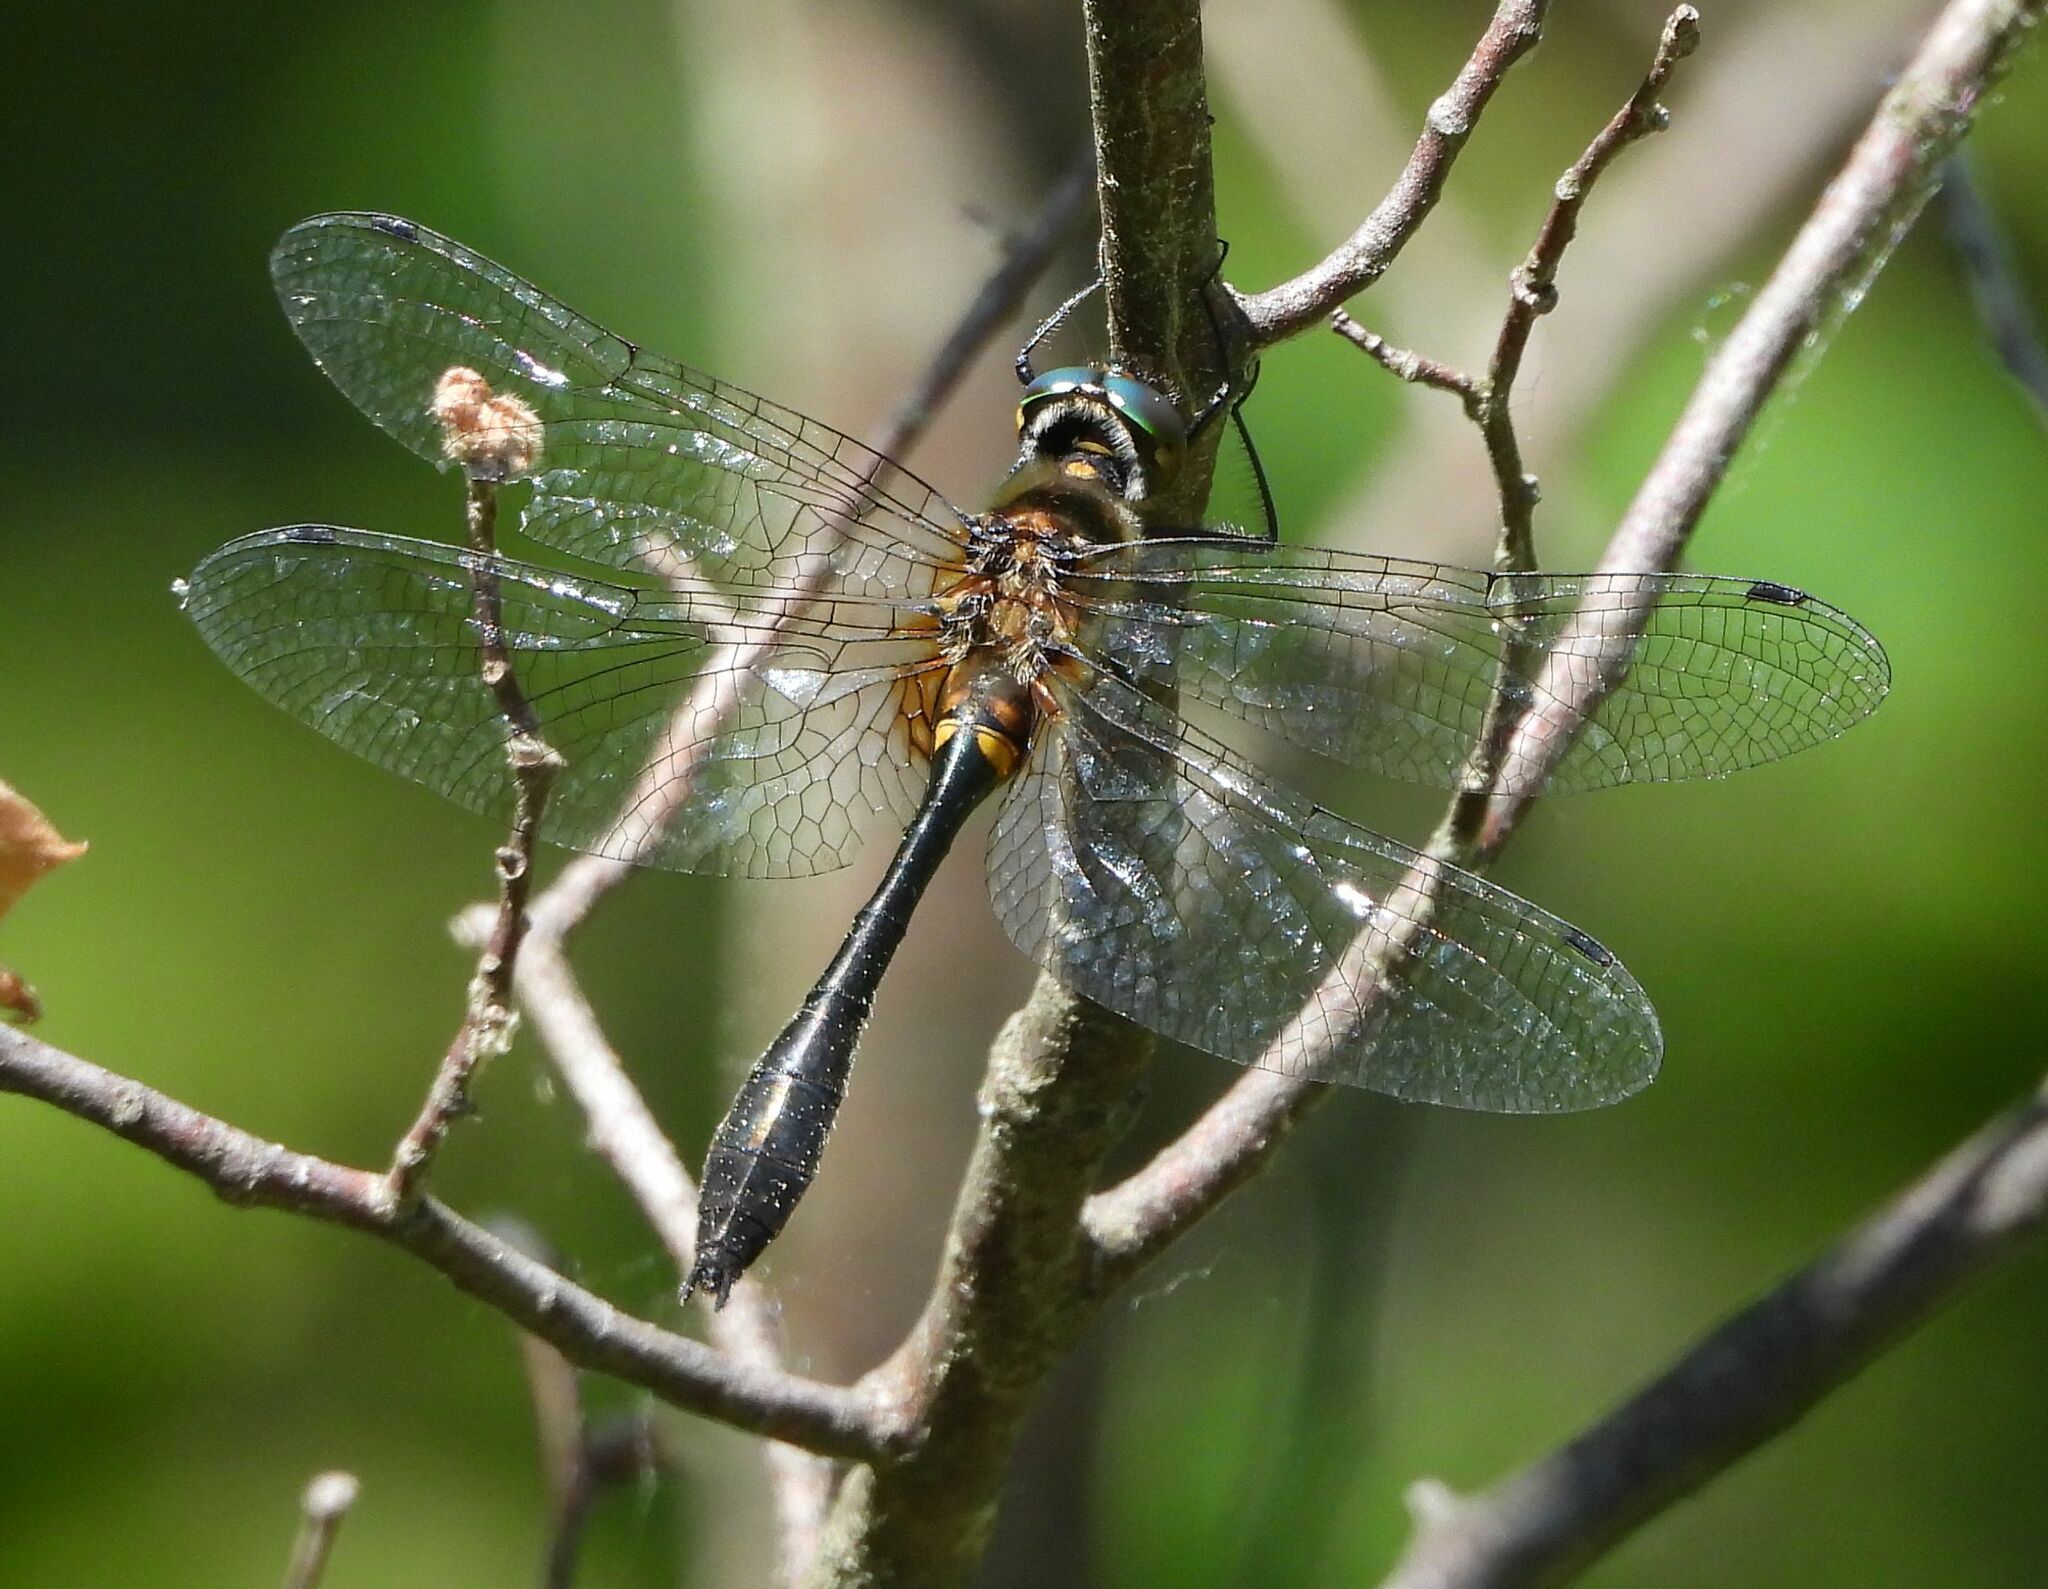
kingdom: Animalia
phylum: Arthropoda
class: Insecta
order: Odonata
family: Corduliidae
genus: Dorocordulia
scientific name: Dorocordulia libera
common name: Racket-tailed emerald
